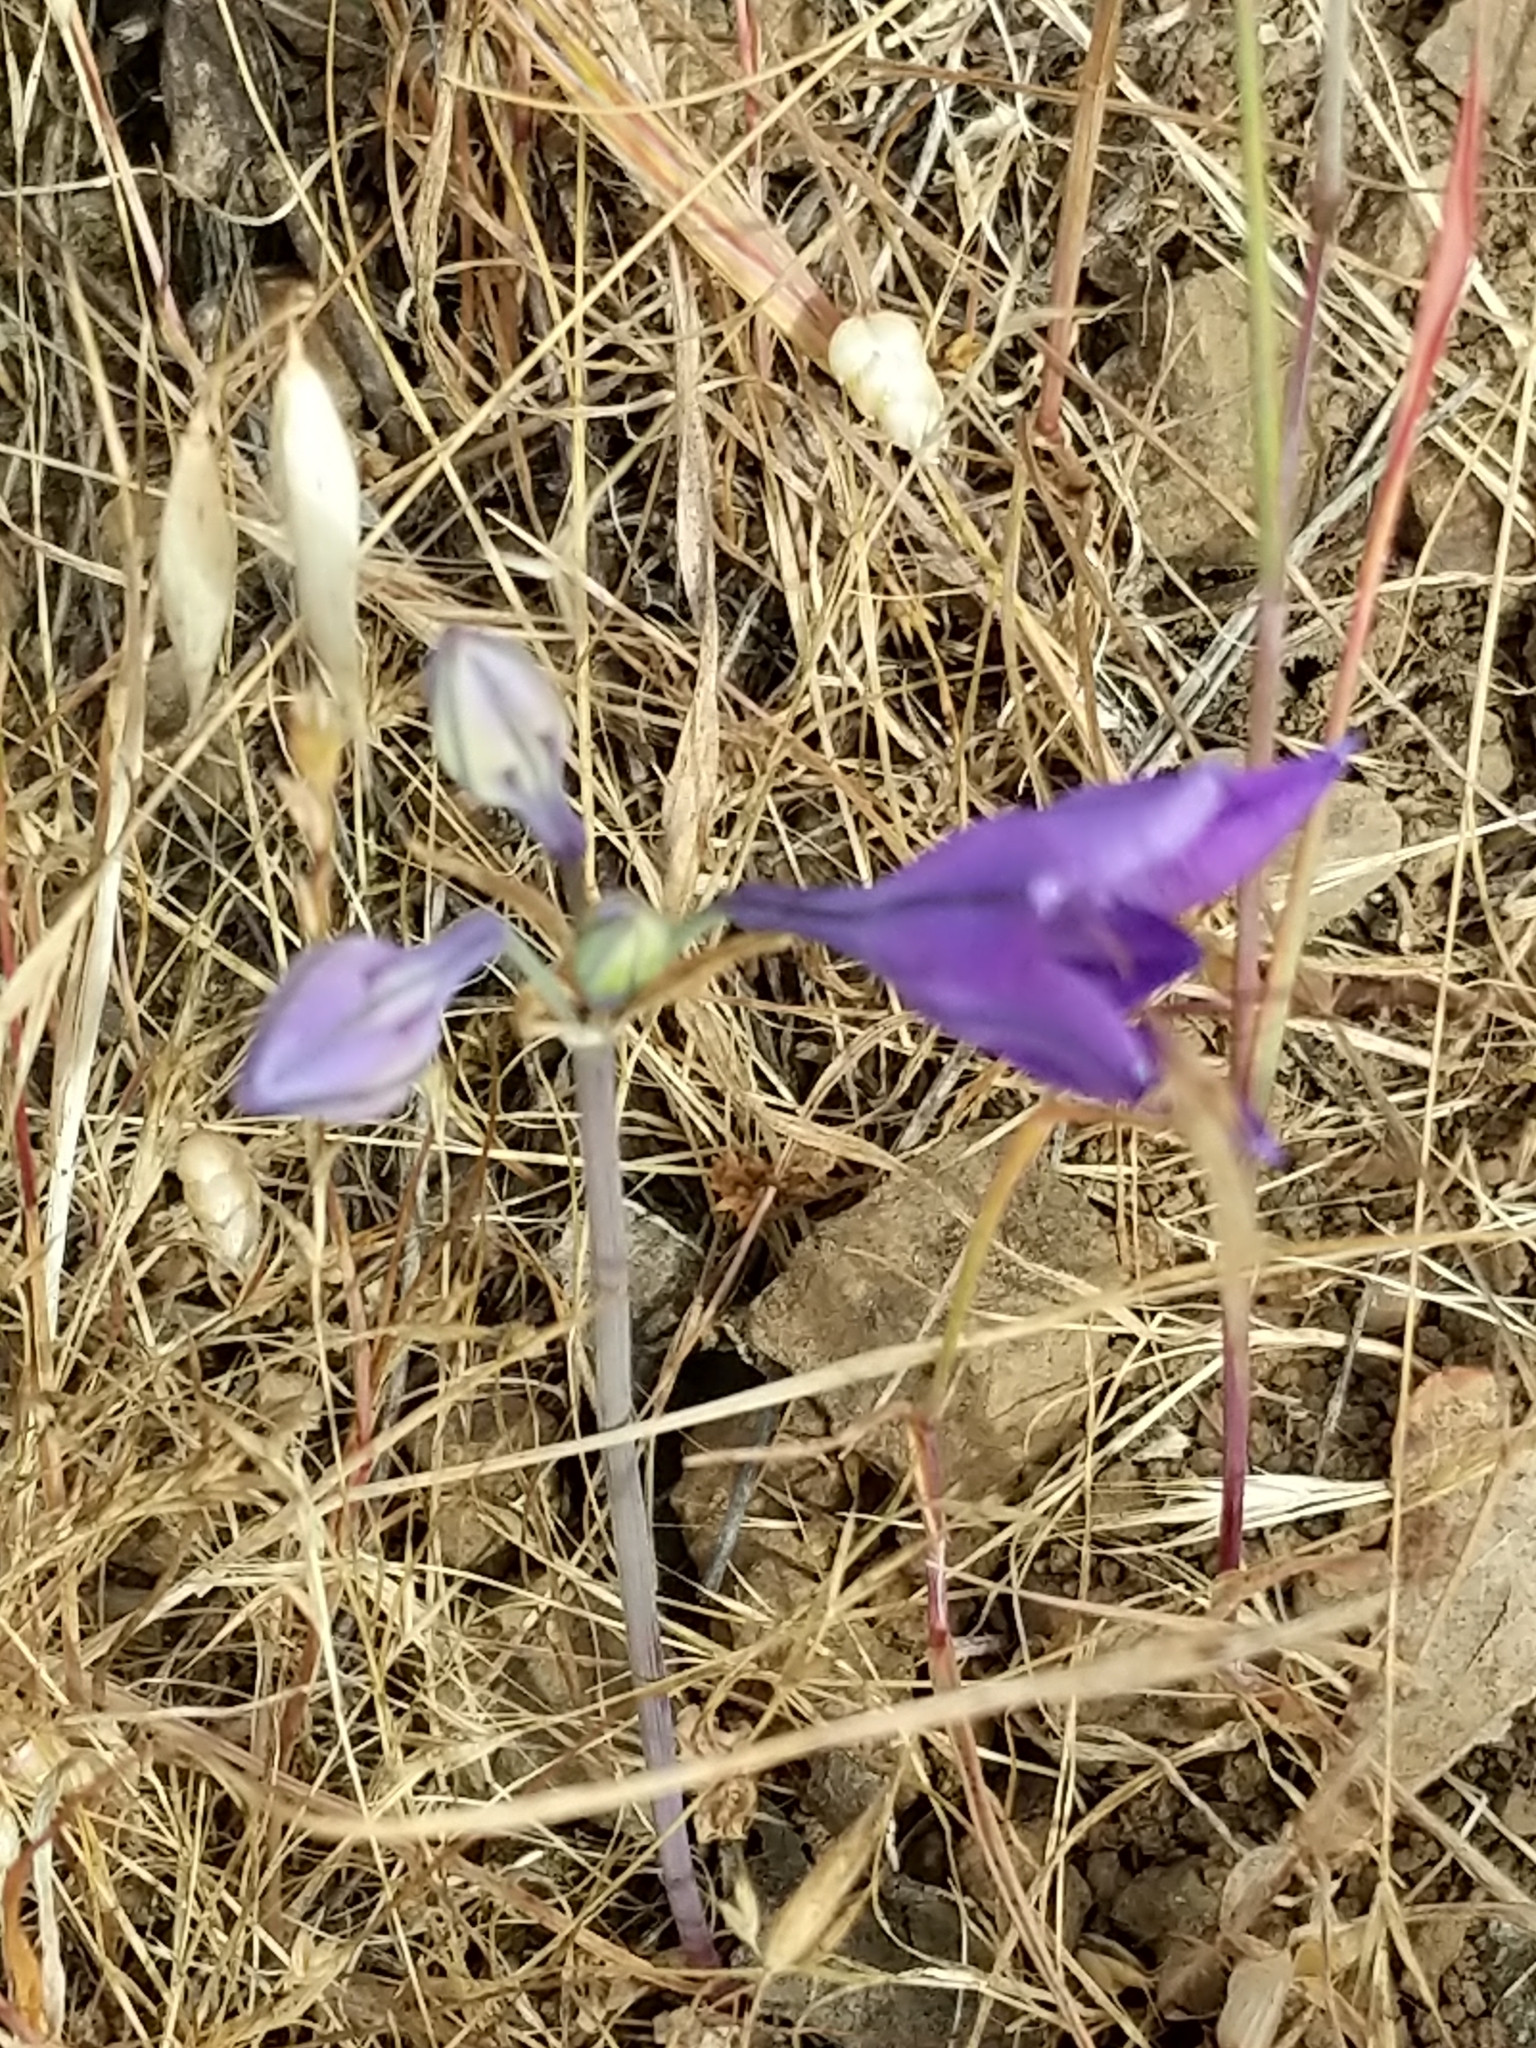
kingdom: Plantae
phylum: Tracheophyta
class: Liliopsida
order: Asparagales
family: Asparagaceae
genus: Triteleia
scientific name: Triteleia laxa
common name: Triplet-lily
